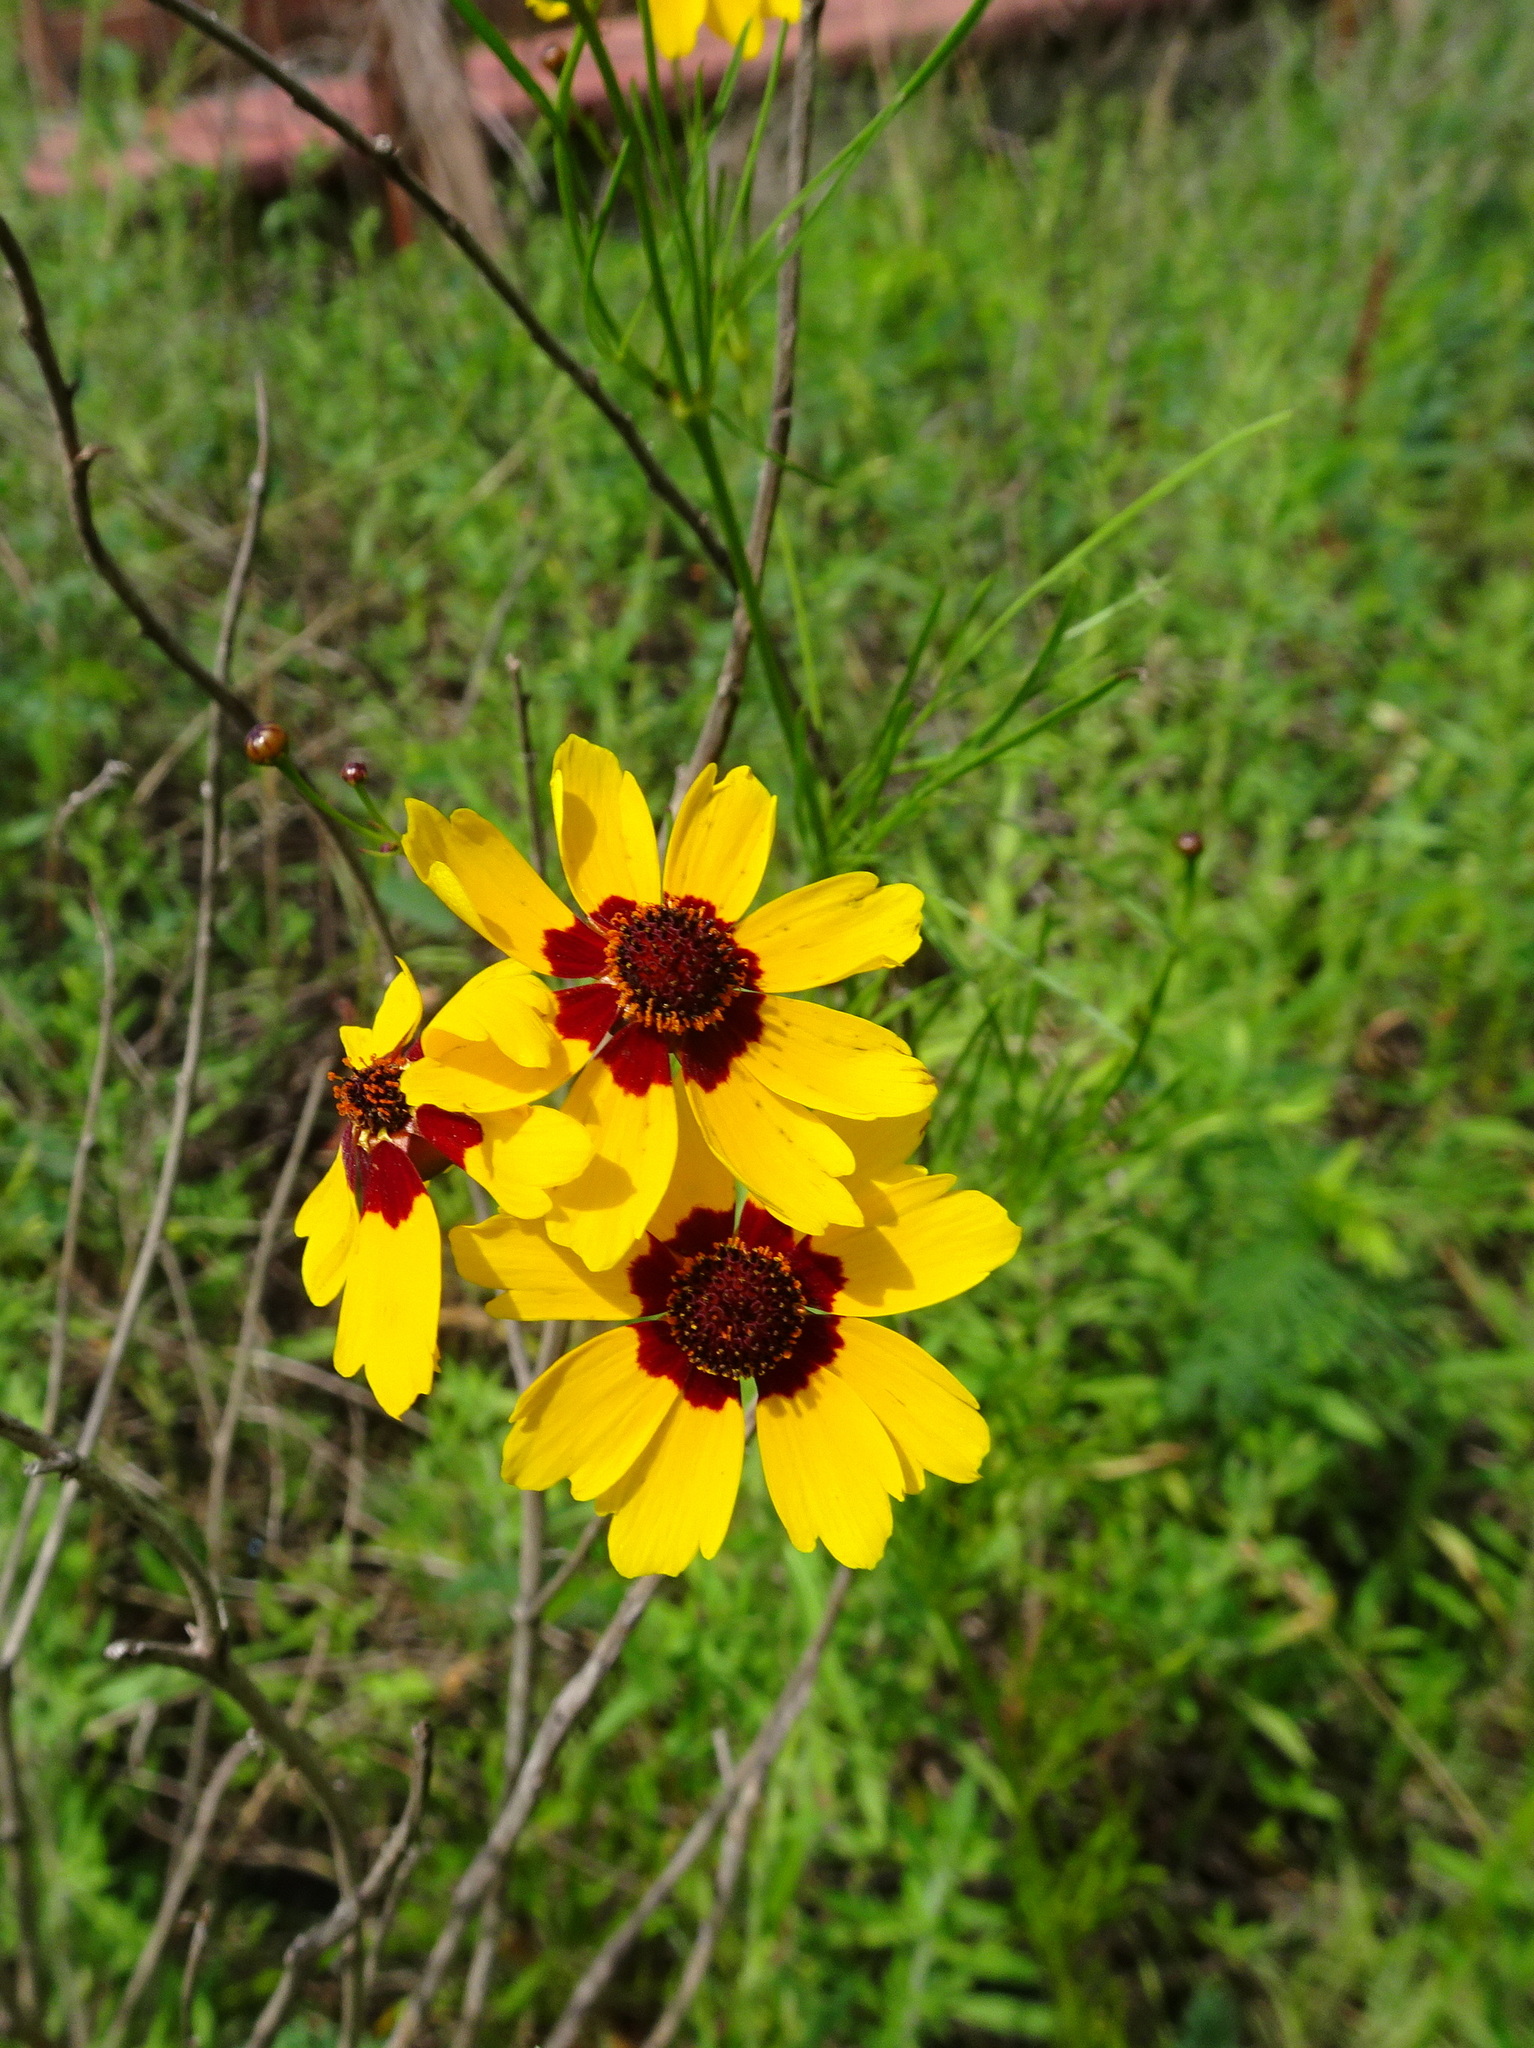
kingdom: Plantae
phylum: Tracheophyta
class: Magnoliopsida
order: Asterales
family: Asteraceae
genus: Coreopsis
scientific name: Coreopsis tinctoria
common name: Garden tickseed
